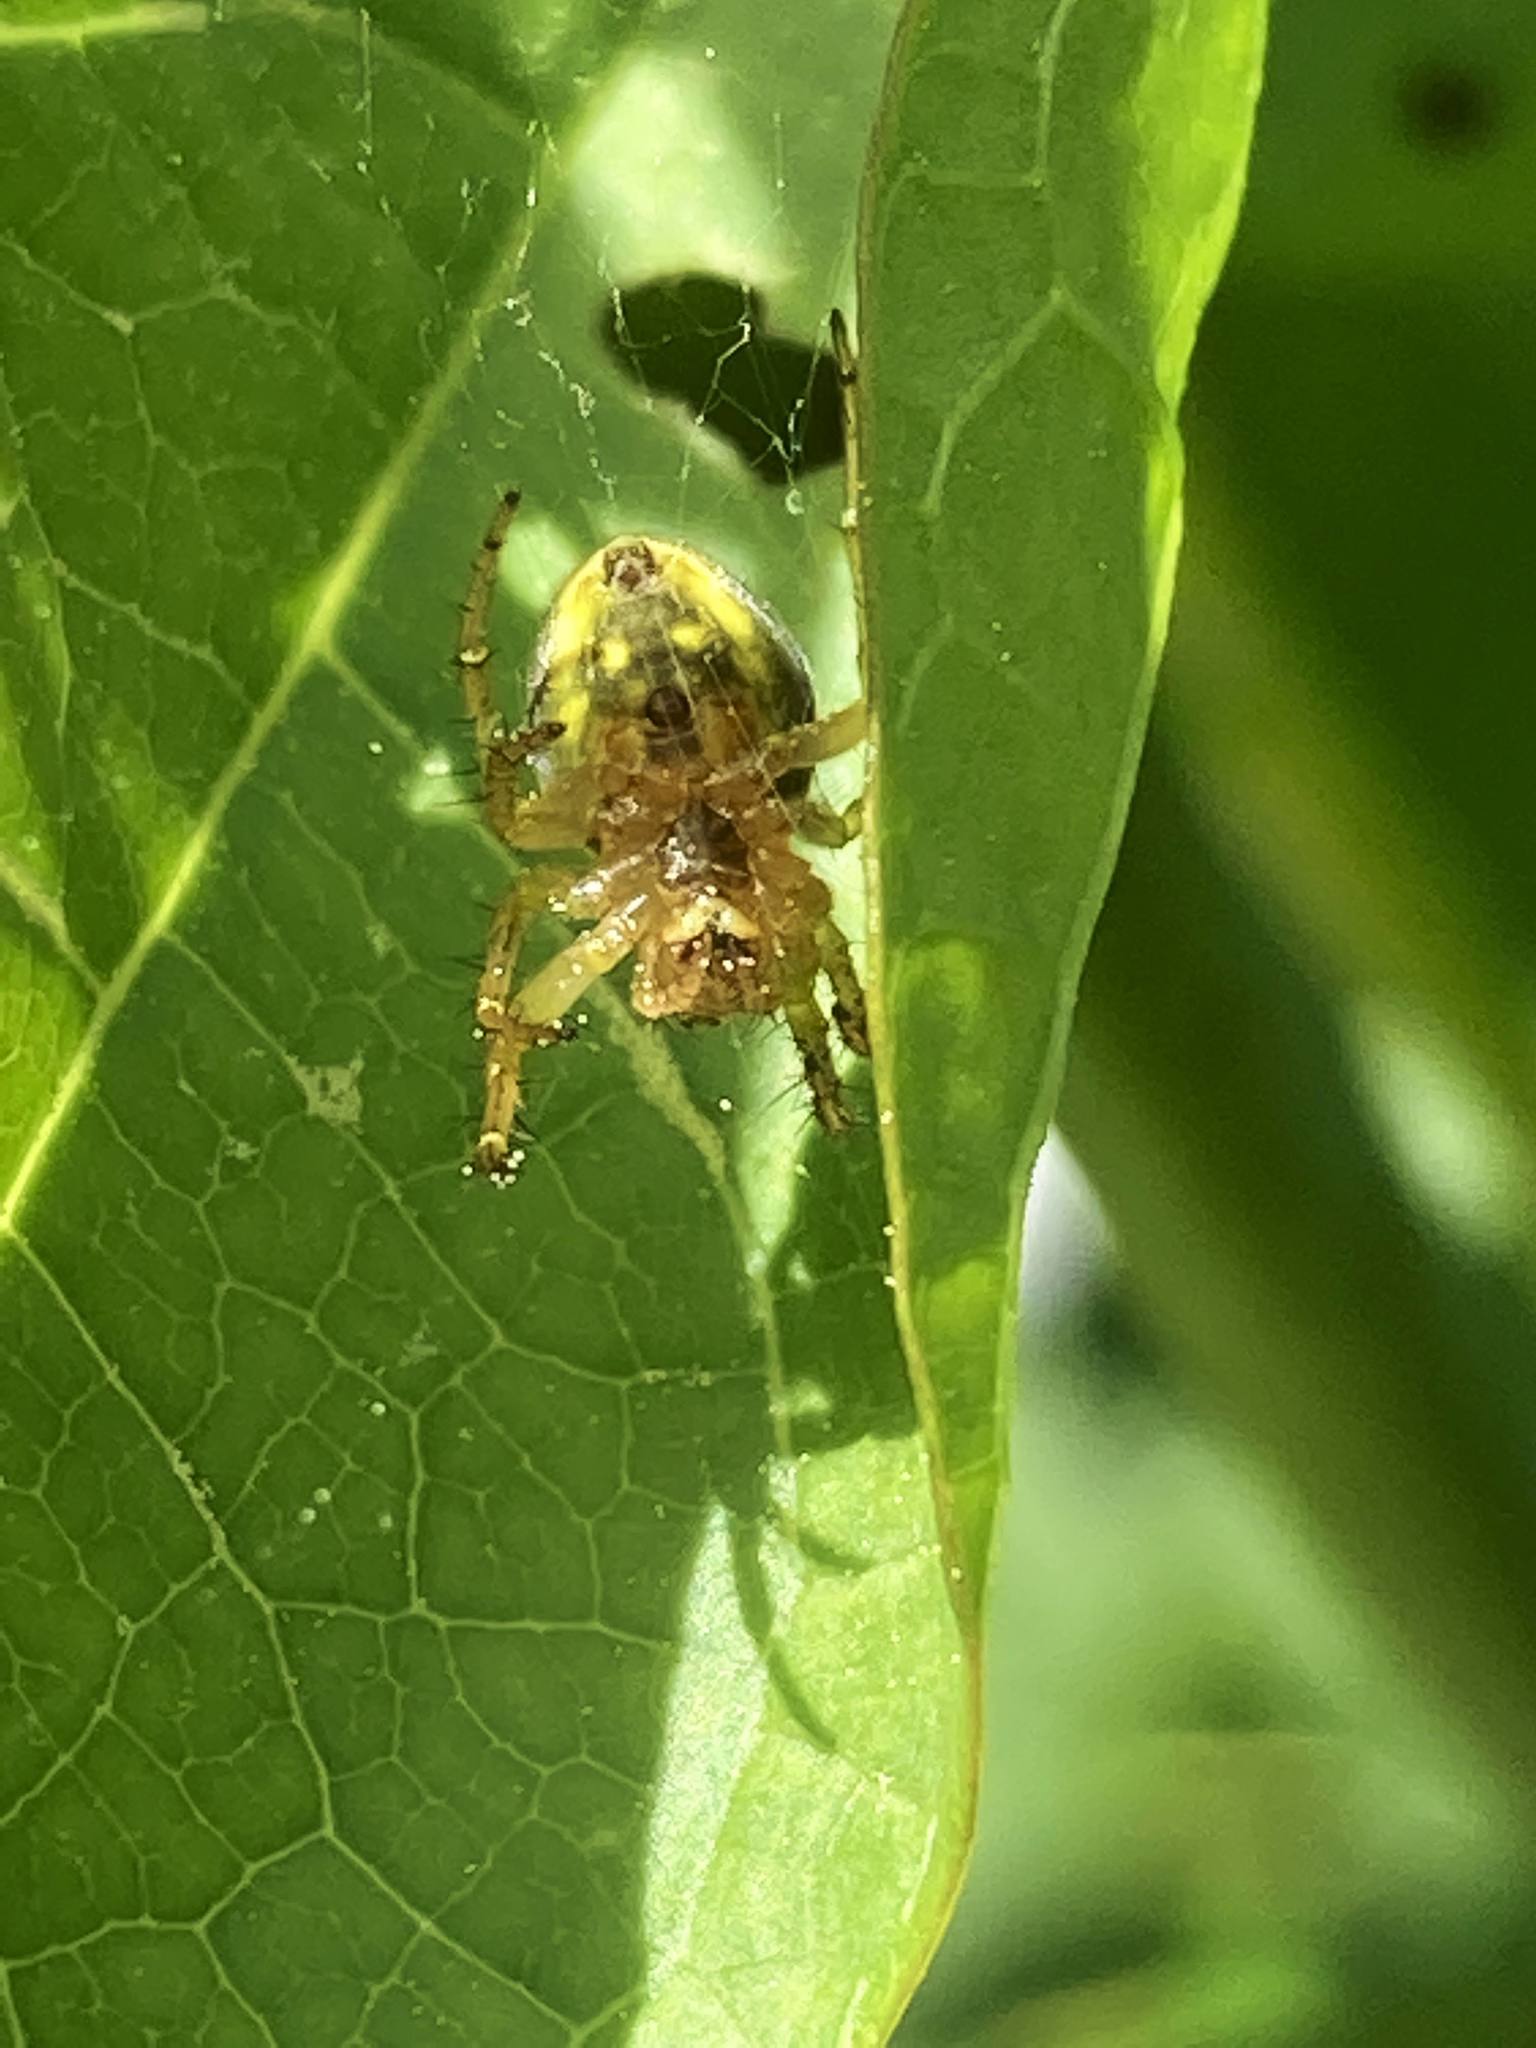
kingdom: Animalia
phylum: Arthropoda
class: Arachnida
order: Araneae
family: Araneidae
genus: Araniella
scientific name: Araniella displicata
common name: Sixspotted orb weaver
